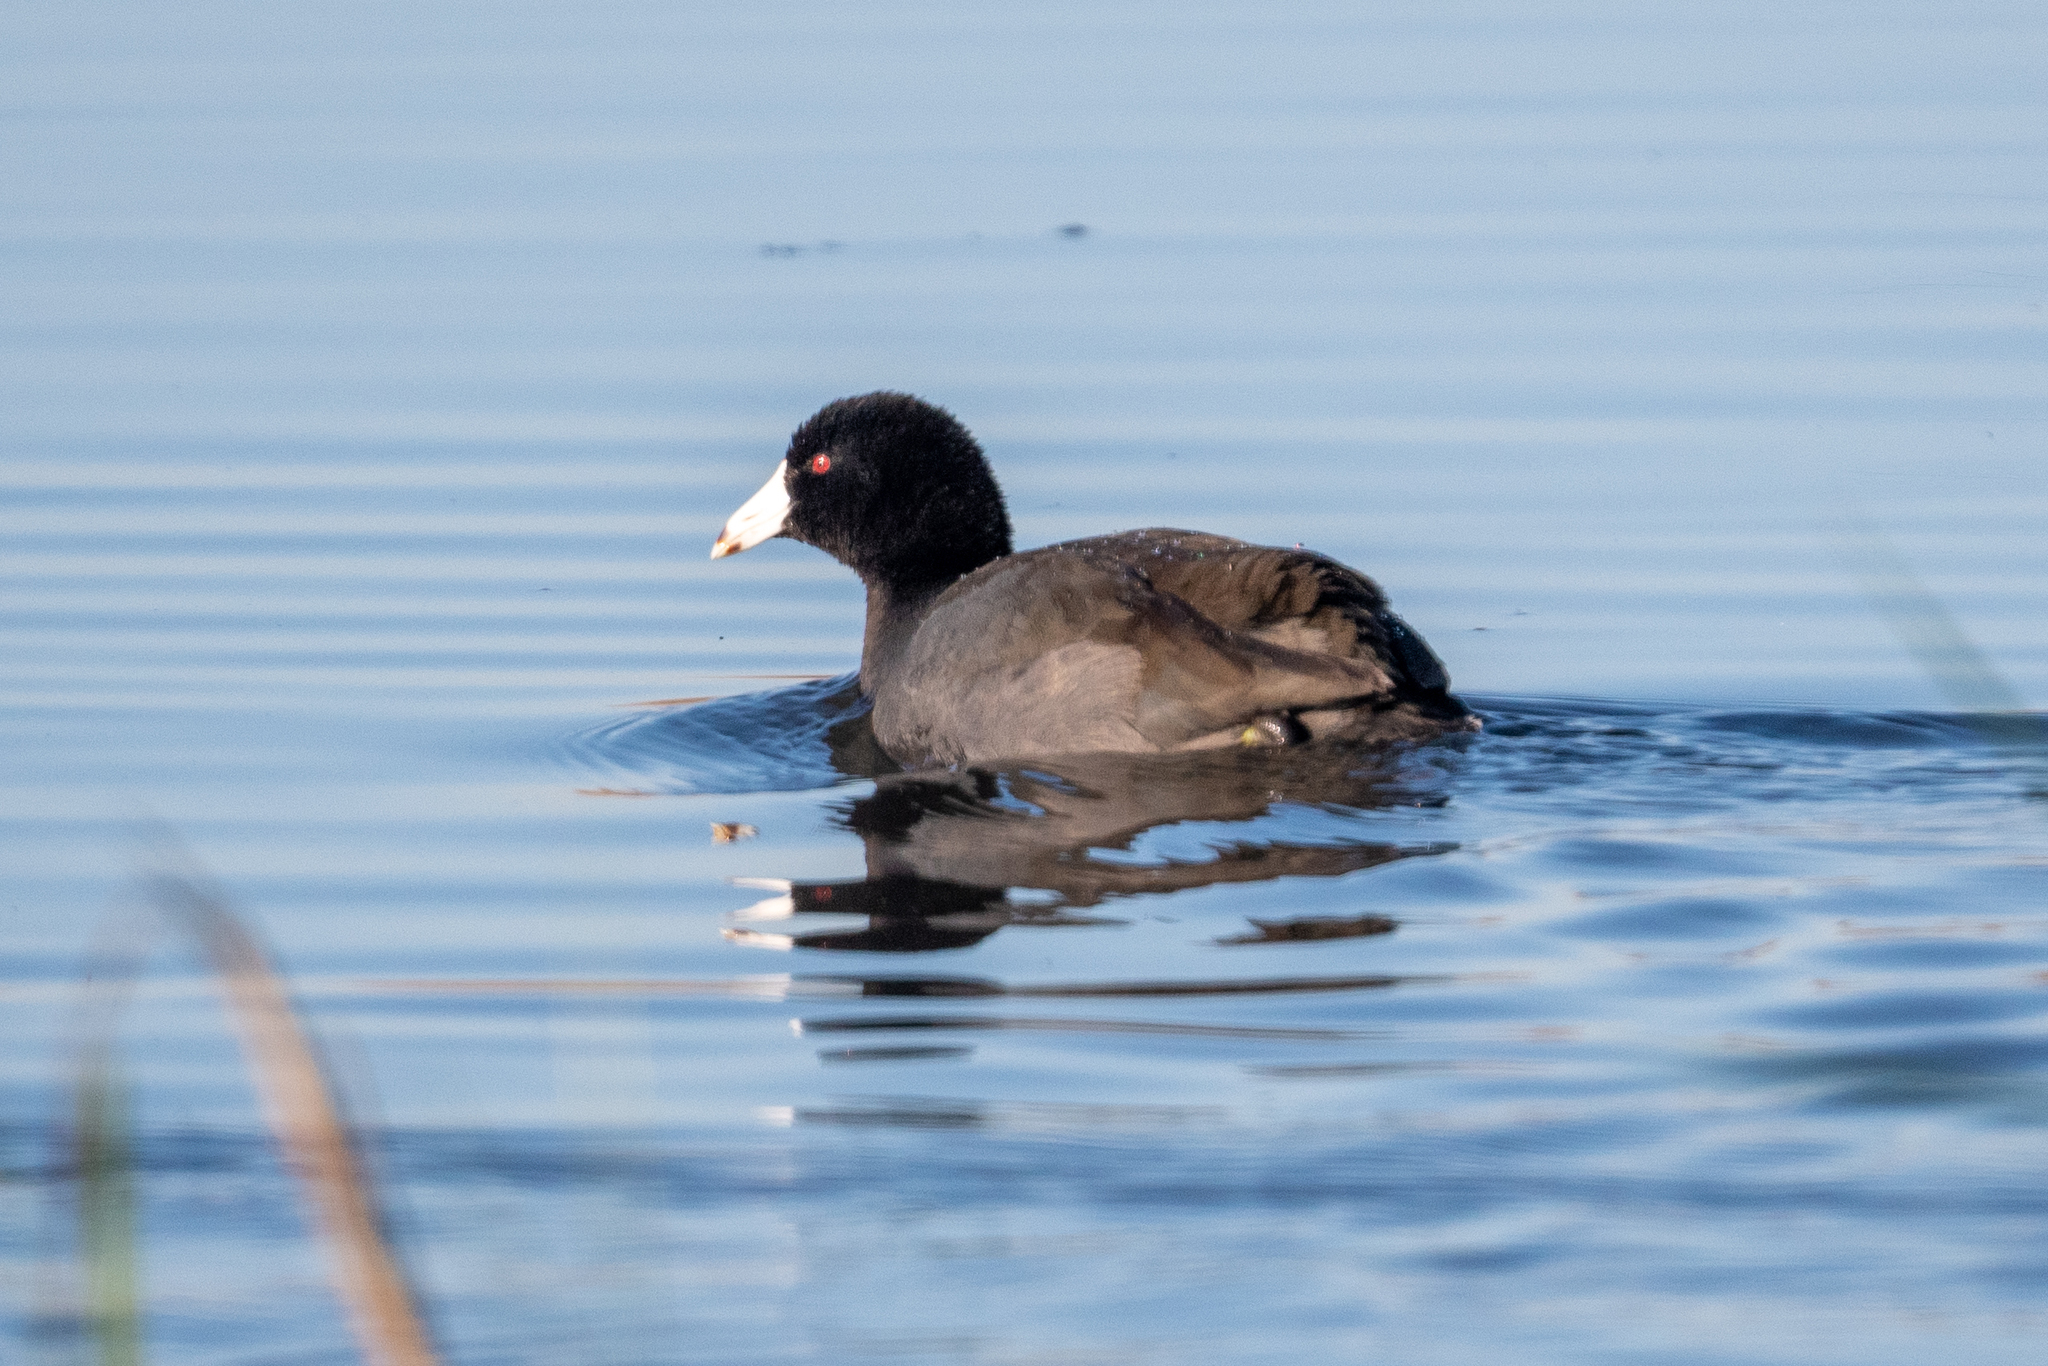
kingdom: Animalia
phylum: Chordata
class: Aves
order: Gruiformes
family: Rallidae
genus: Fulica
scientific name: Fulica americana
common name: American coot
